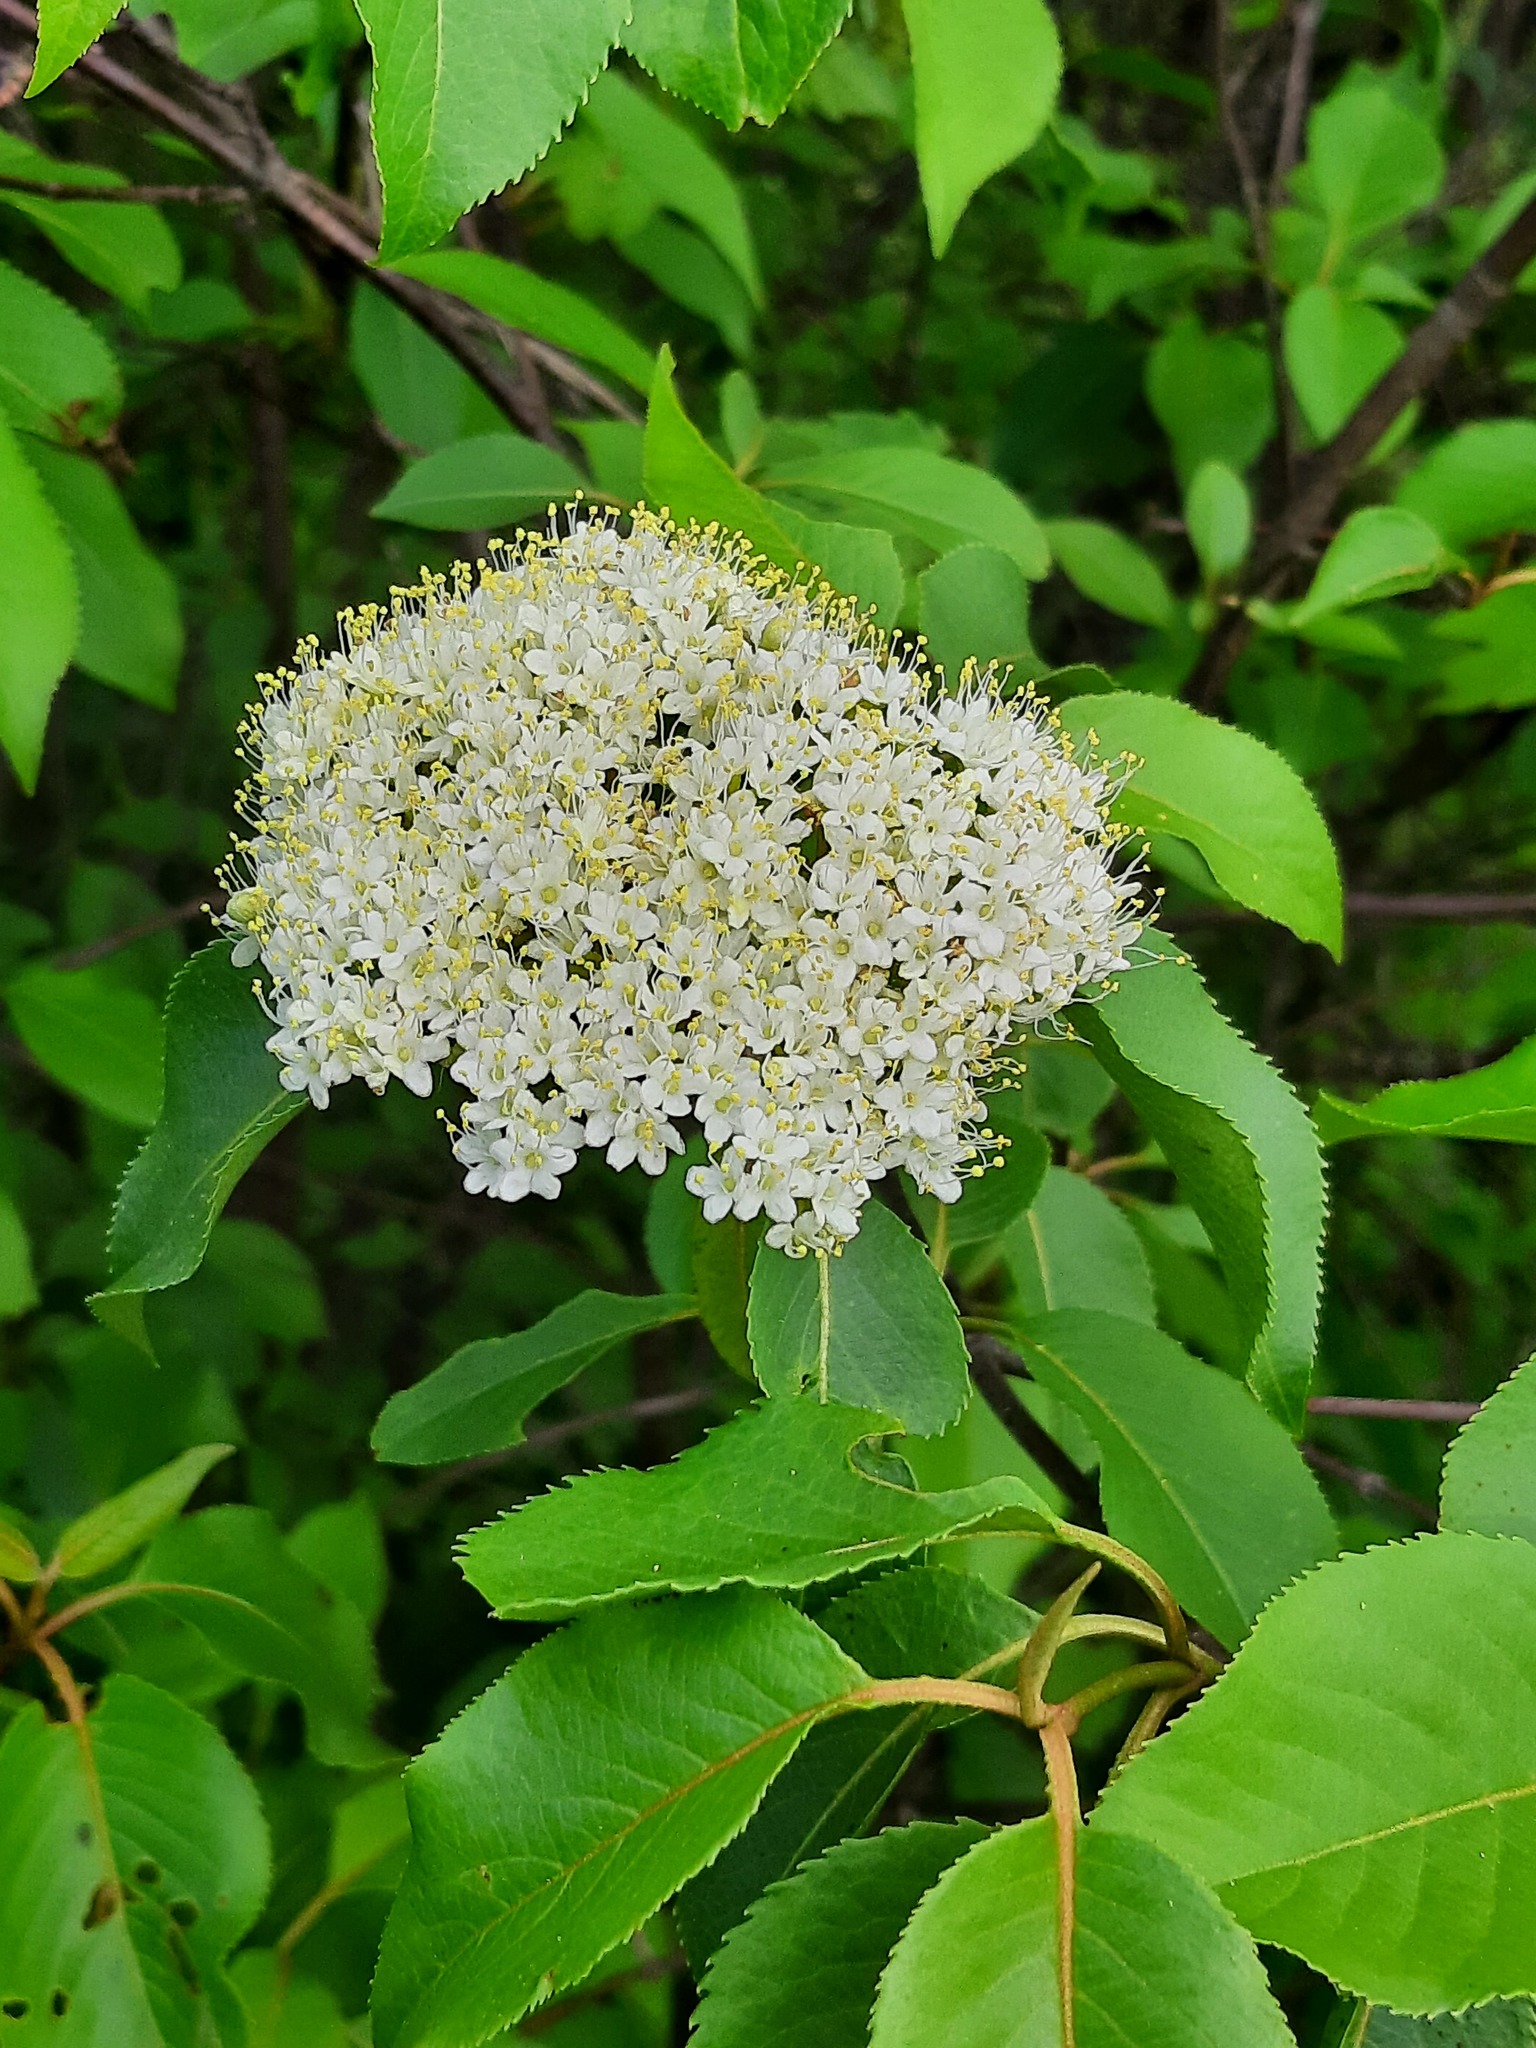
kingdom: Plantae
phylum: Tracheophyta
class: Magnoliopsida
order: Dipsacales
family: Viburnaceae
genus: Viburnum
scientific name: Viburnum lentago
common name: Black haw
